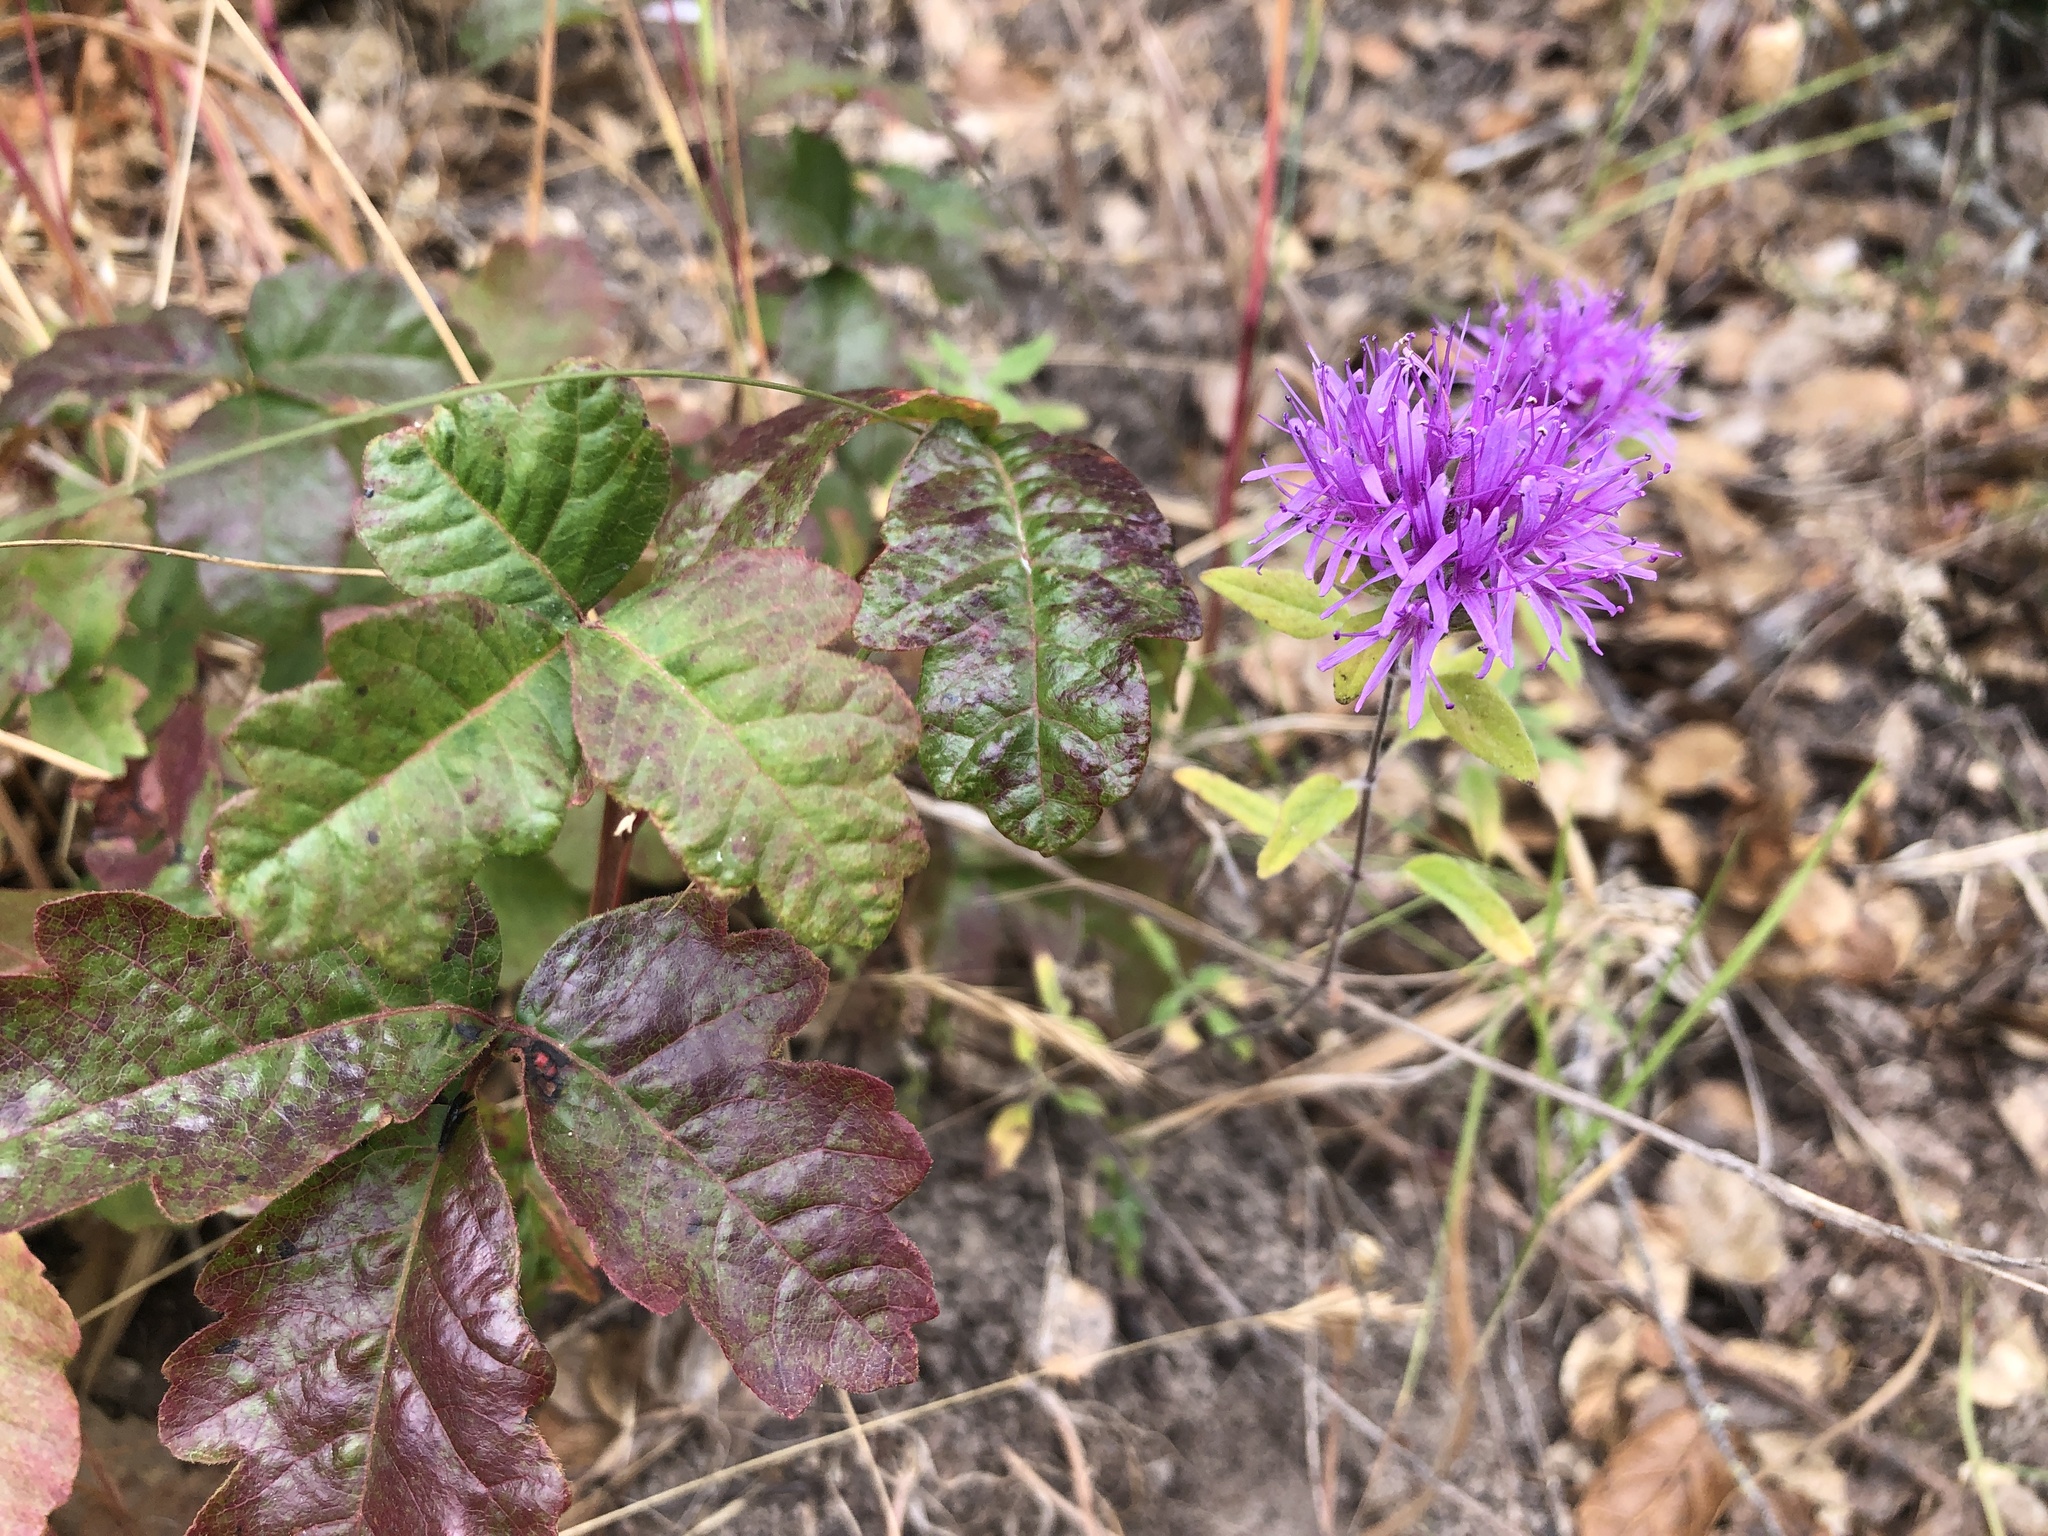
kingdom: Plantae
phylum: Tracheophyta
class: Magnoliopsida
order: Lamiales
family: Lamiaceae
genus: Monardella
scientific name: Monardella odoratissima
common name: Pacific monardella
